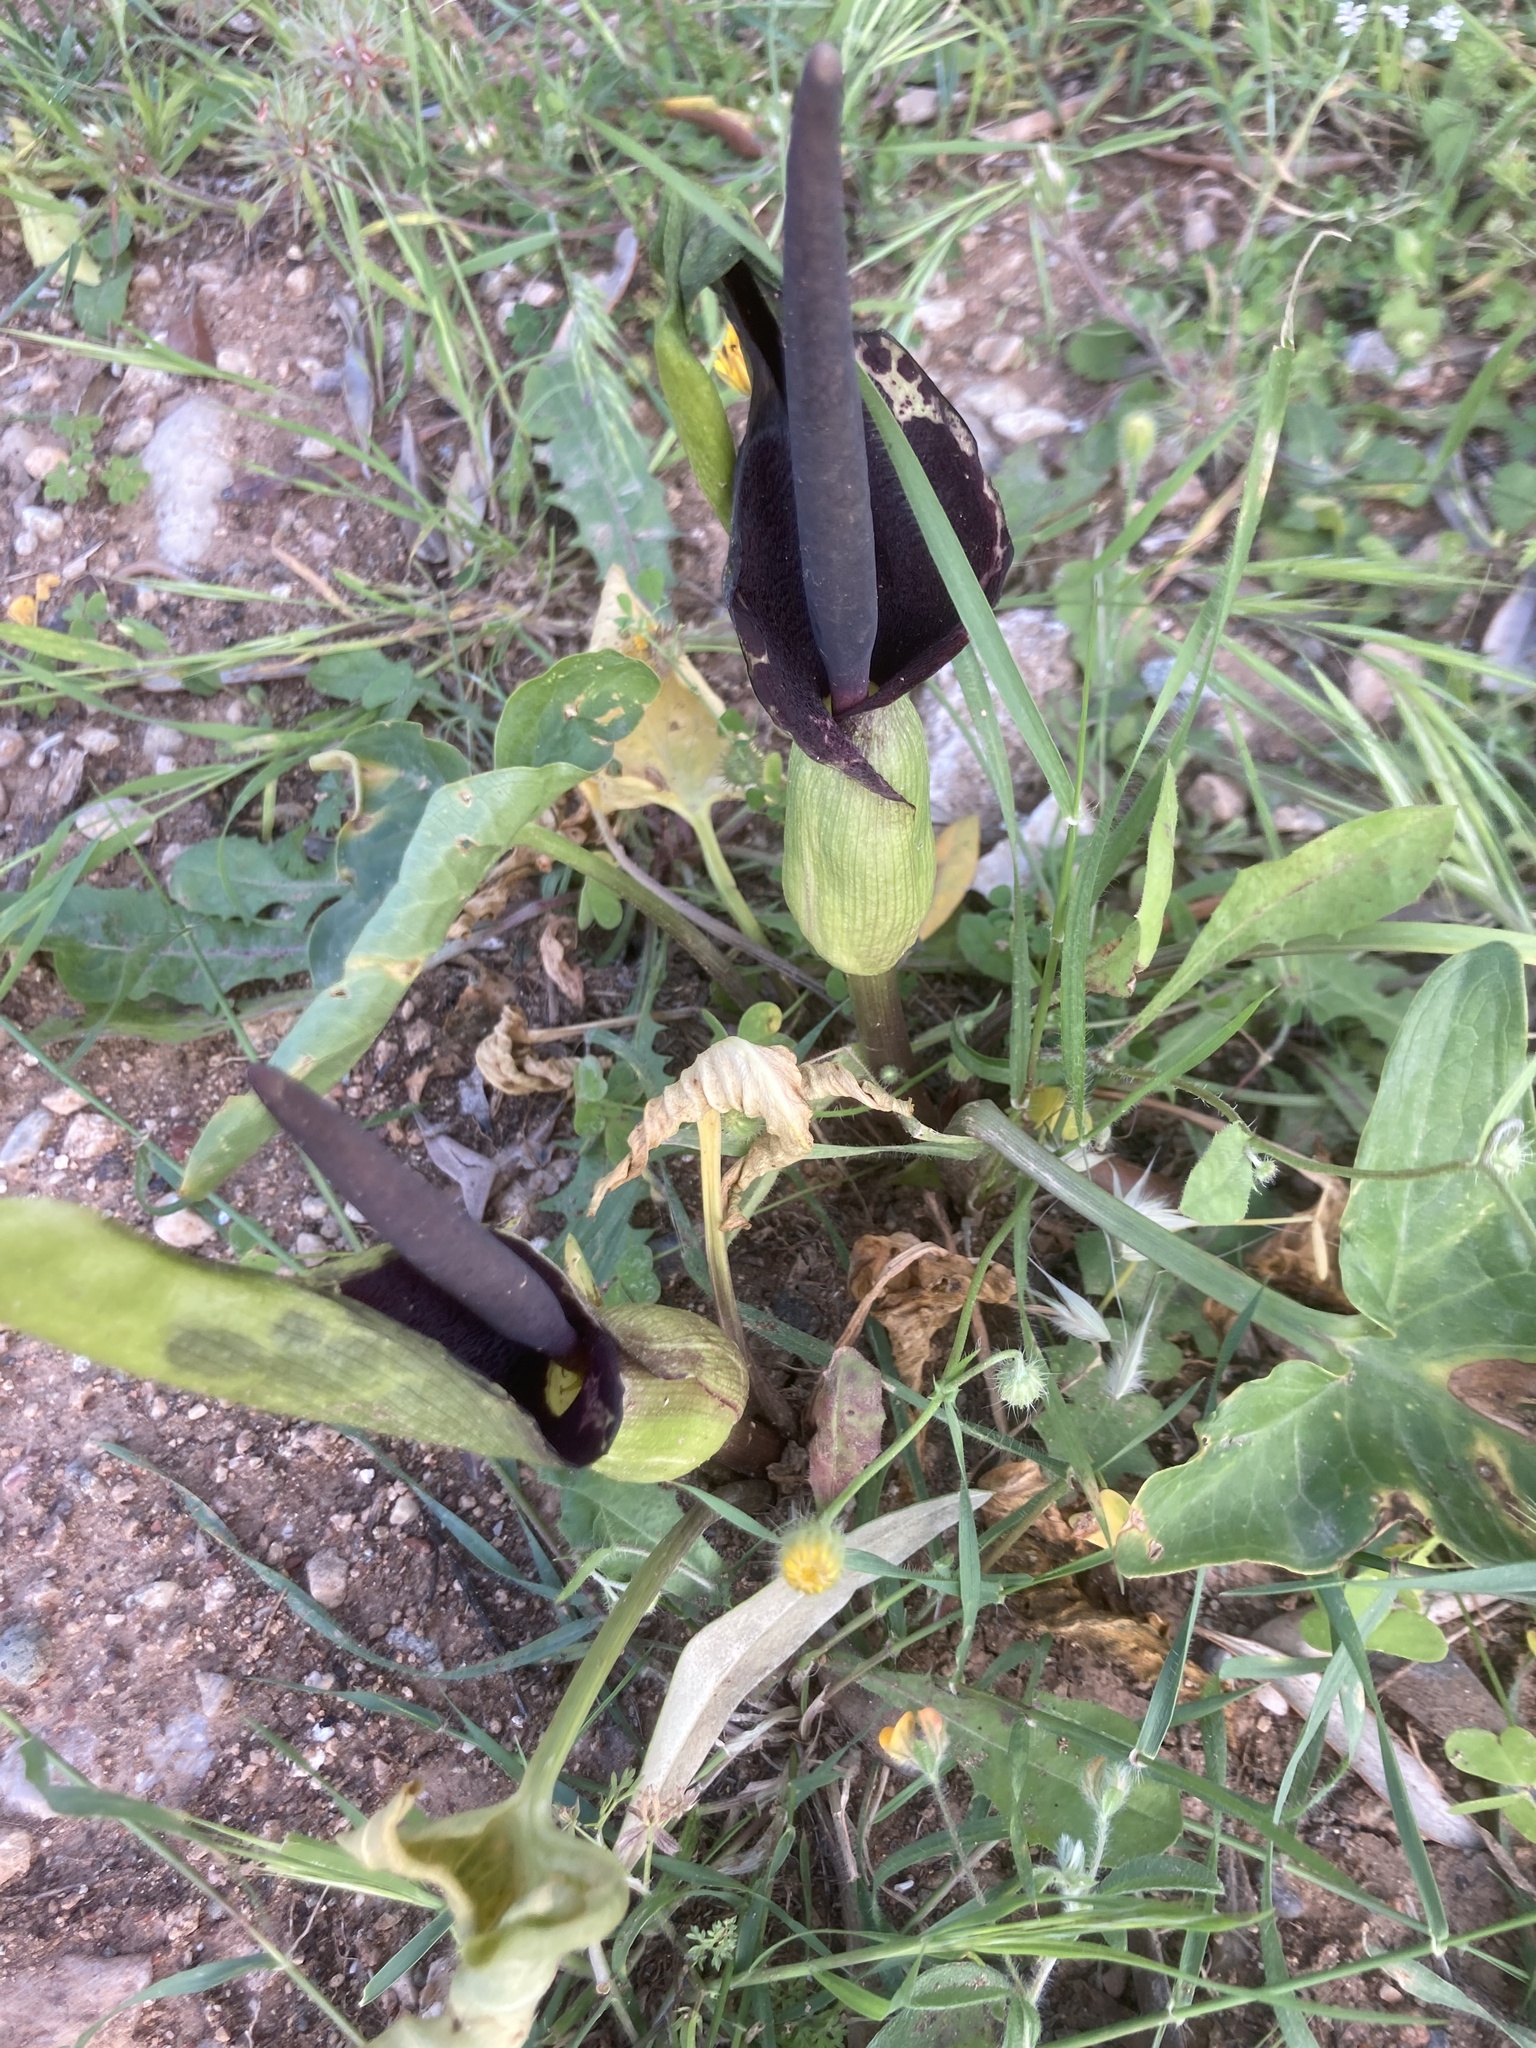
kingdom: Plantae
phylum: Tracheophyta
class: Liliopsida
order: Alismatales
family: Araceae
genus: Arum
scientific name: Arum dioscoridis
